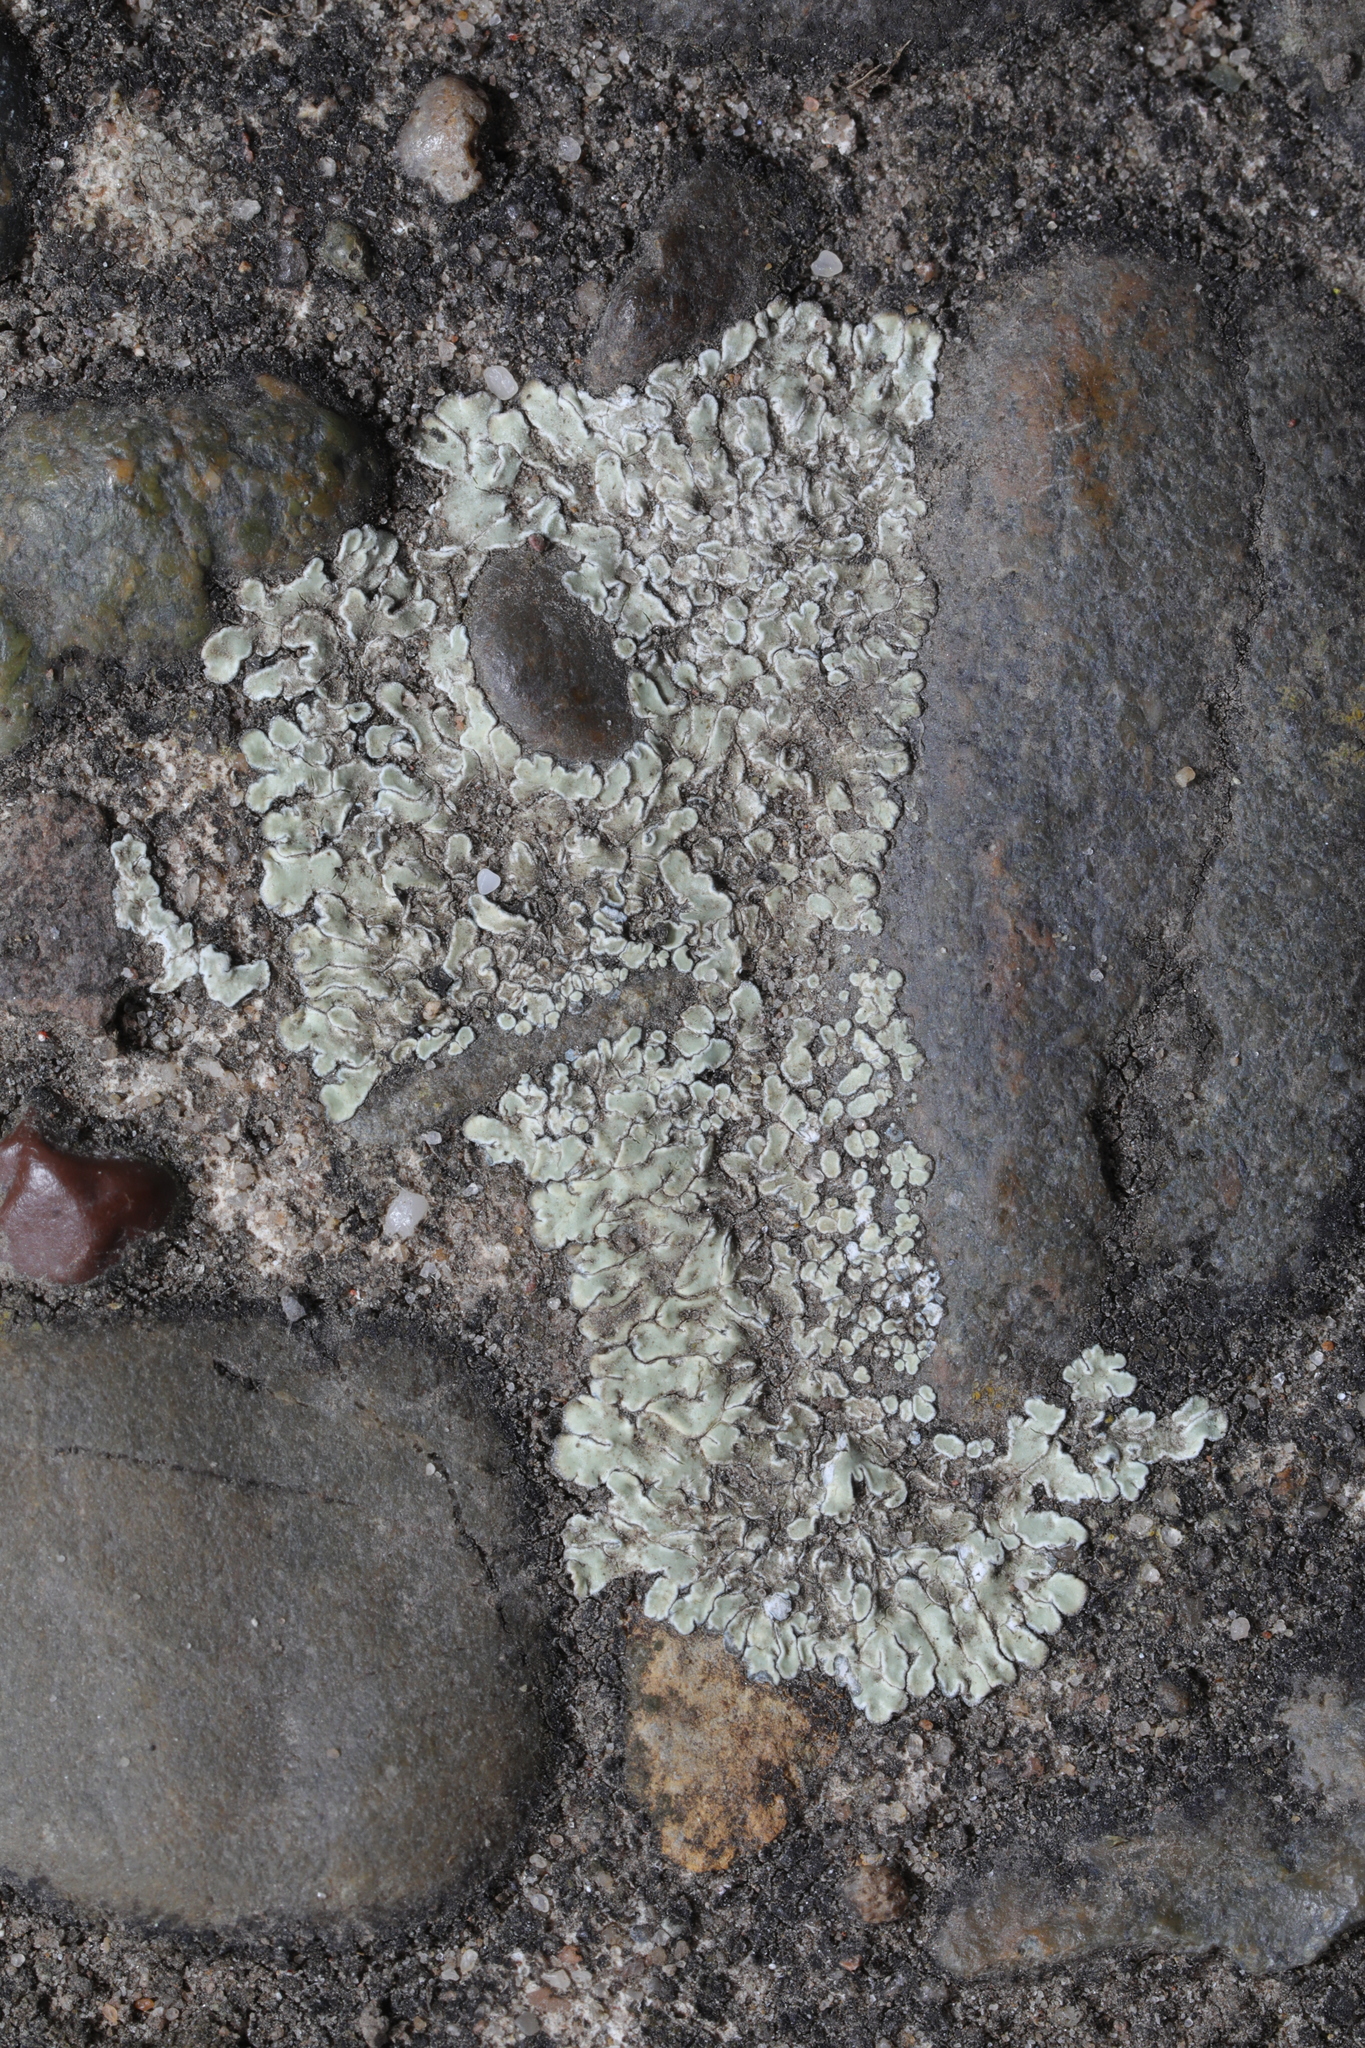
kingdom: Fungi
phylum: Ascomycota
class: Lecanoromycetes
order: Lecanorales
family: Lecanoraceae
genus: Protoparmeliopsis
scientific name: Protoparmeliopsis muralis
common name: Stonewall rim lichen
